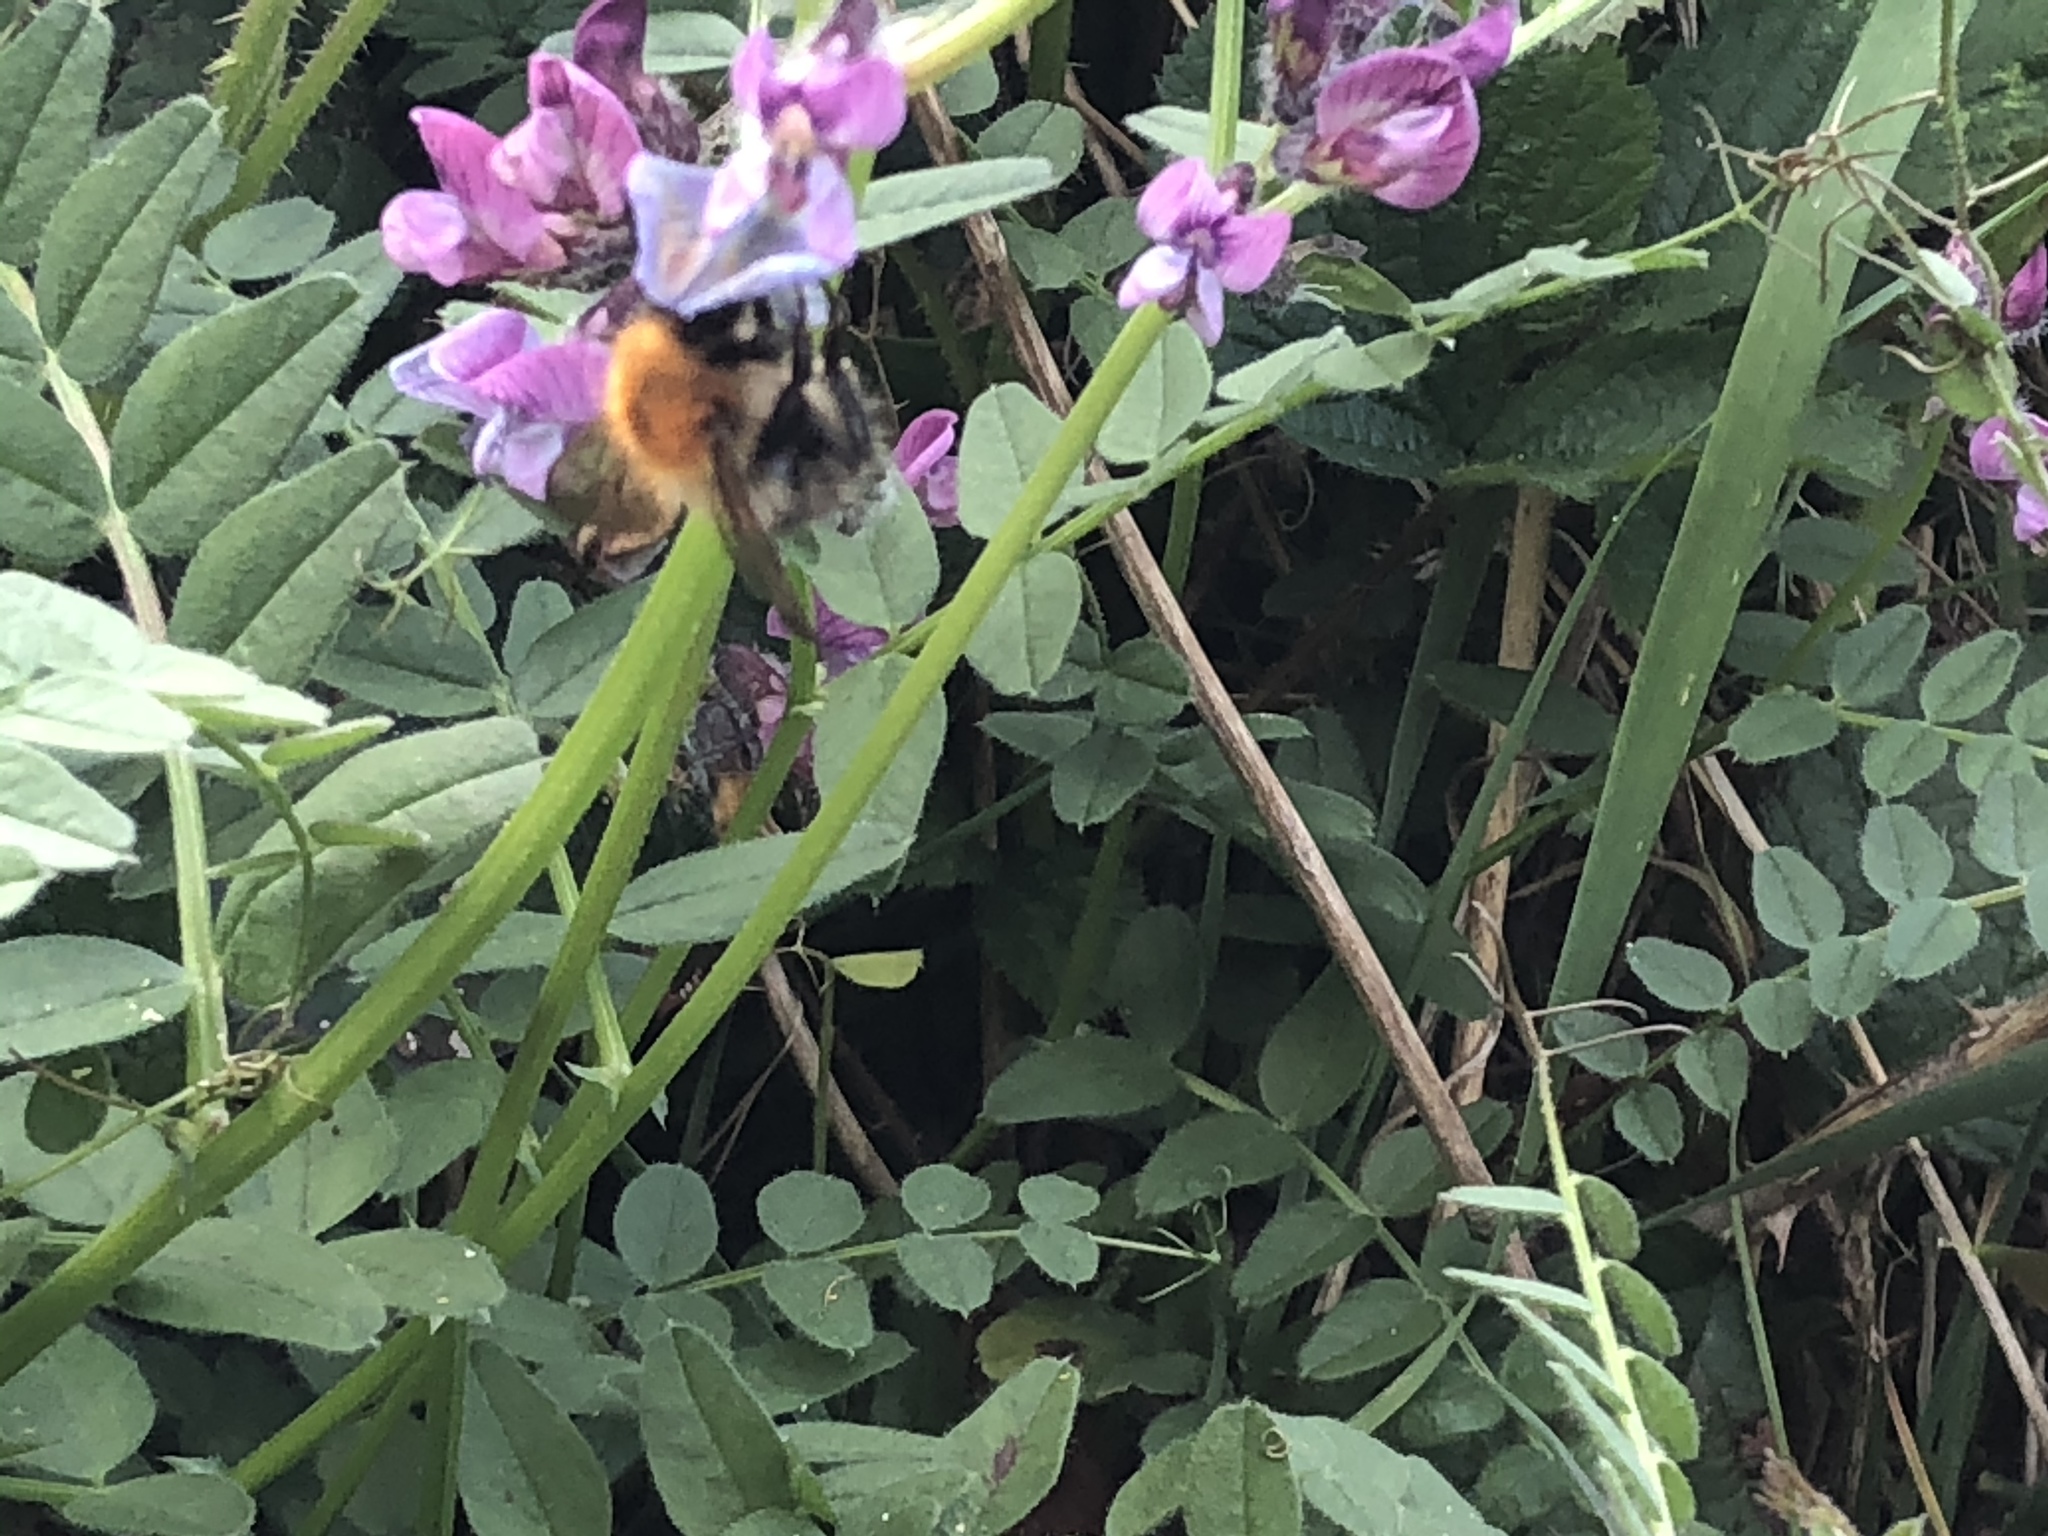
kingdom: Animalia
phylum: Arthropoda
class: Insecta
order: Hymenoptera
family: Apidae
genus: Bombus
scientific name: Bombus pascuorum
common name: Common carder bee
